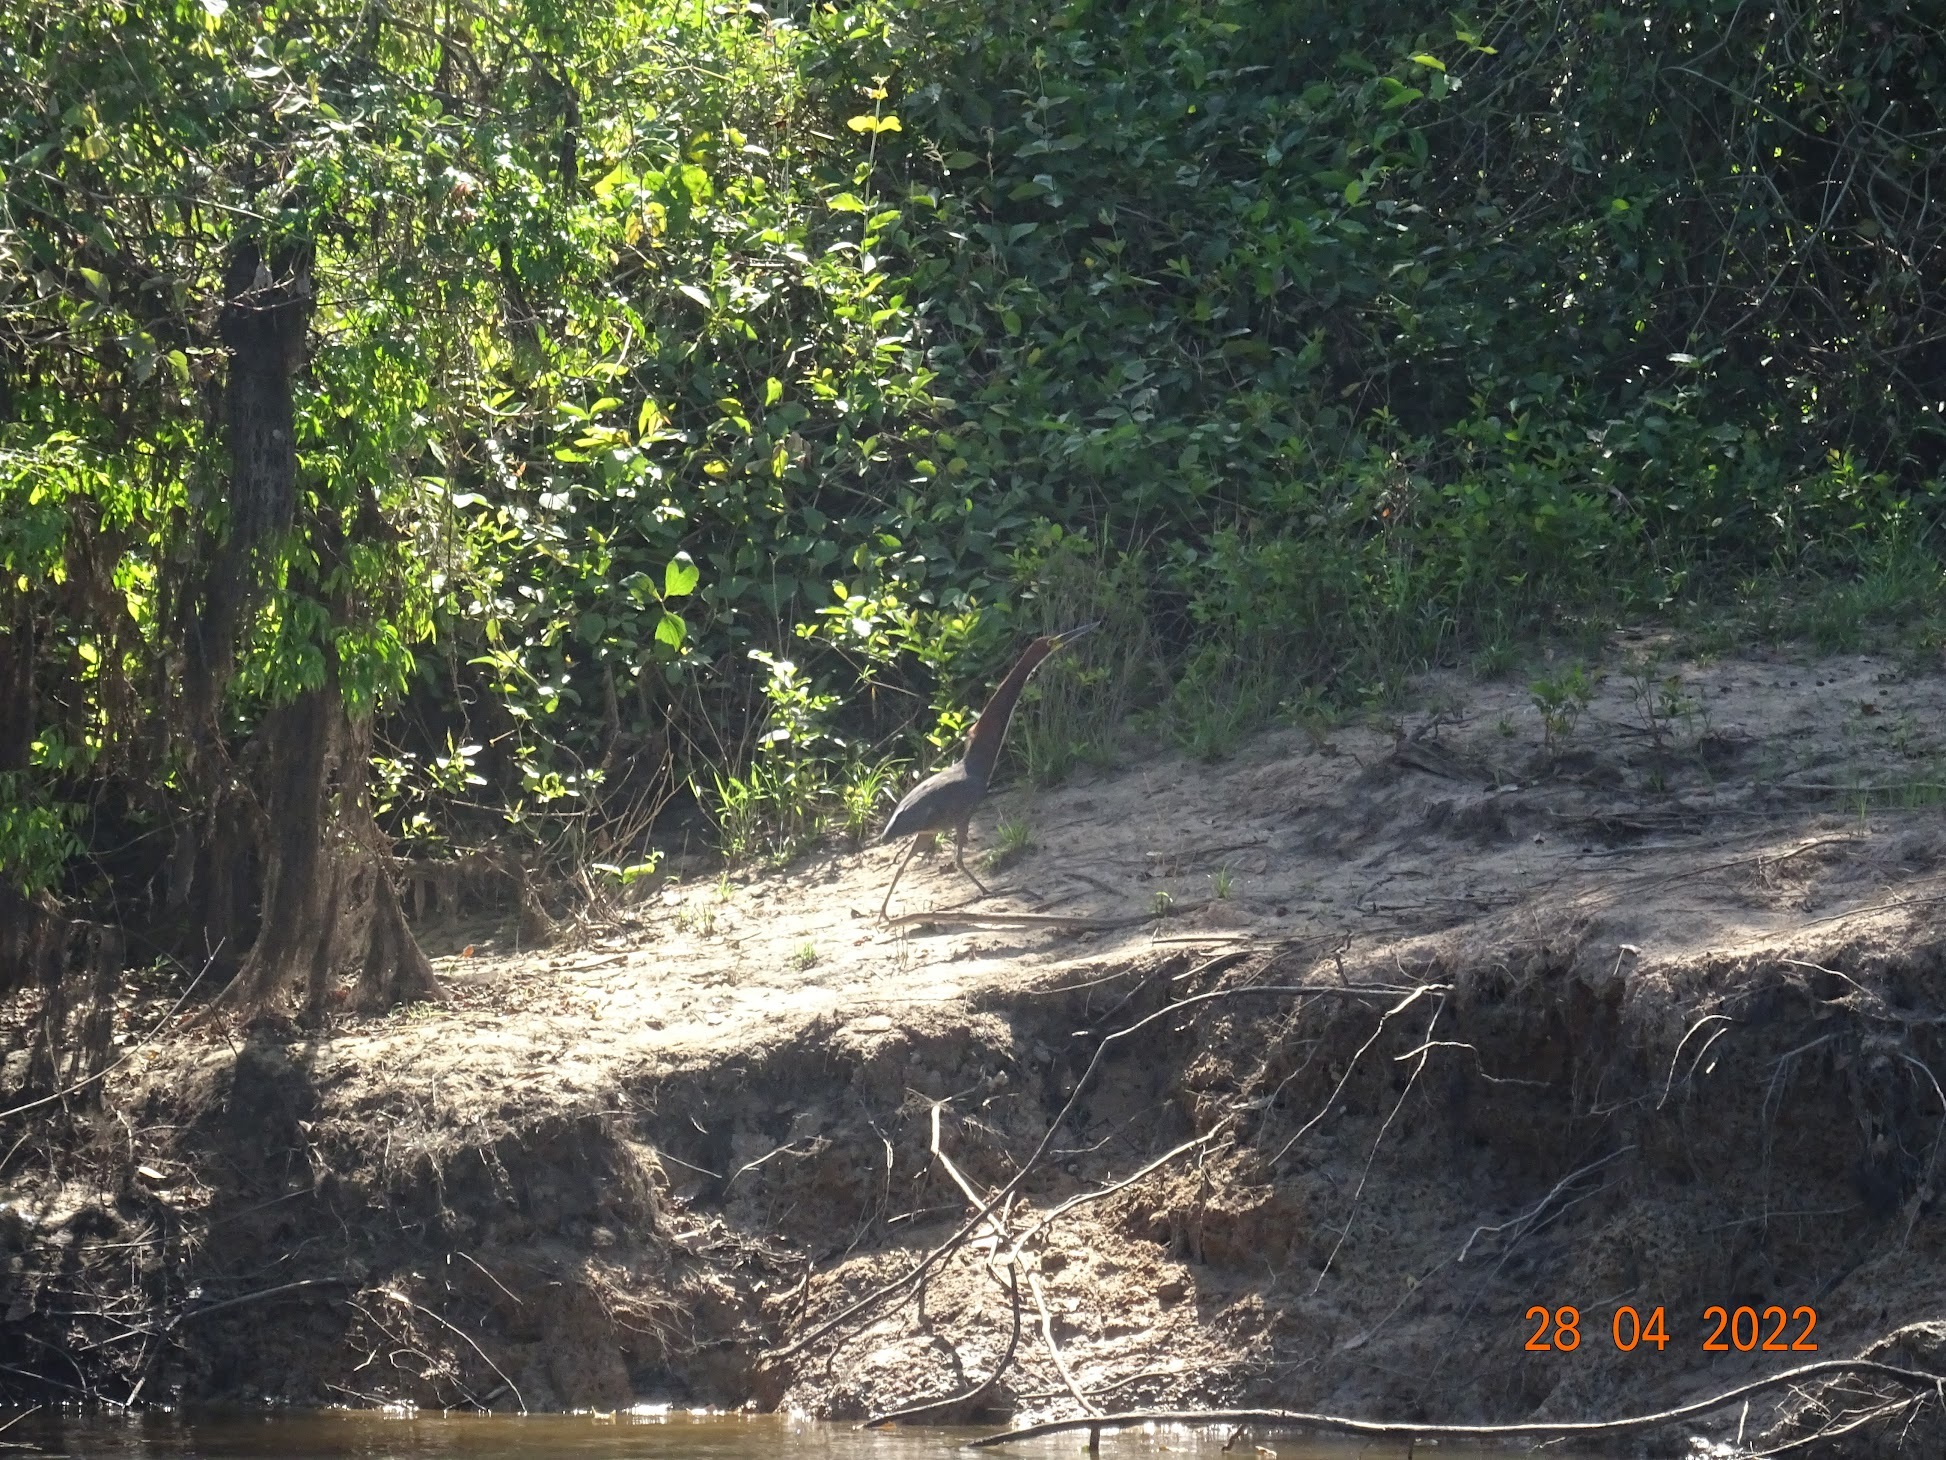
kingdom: Animalia
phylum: Chordata
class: Aves
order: Pelecaniformes
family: Ardeidae
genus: Tigrisoma
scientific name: Tigrisoma lineatum
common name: Rufescent tiger-heron
